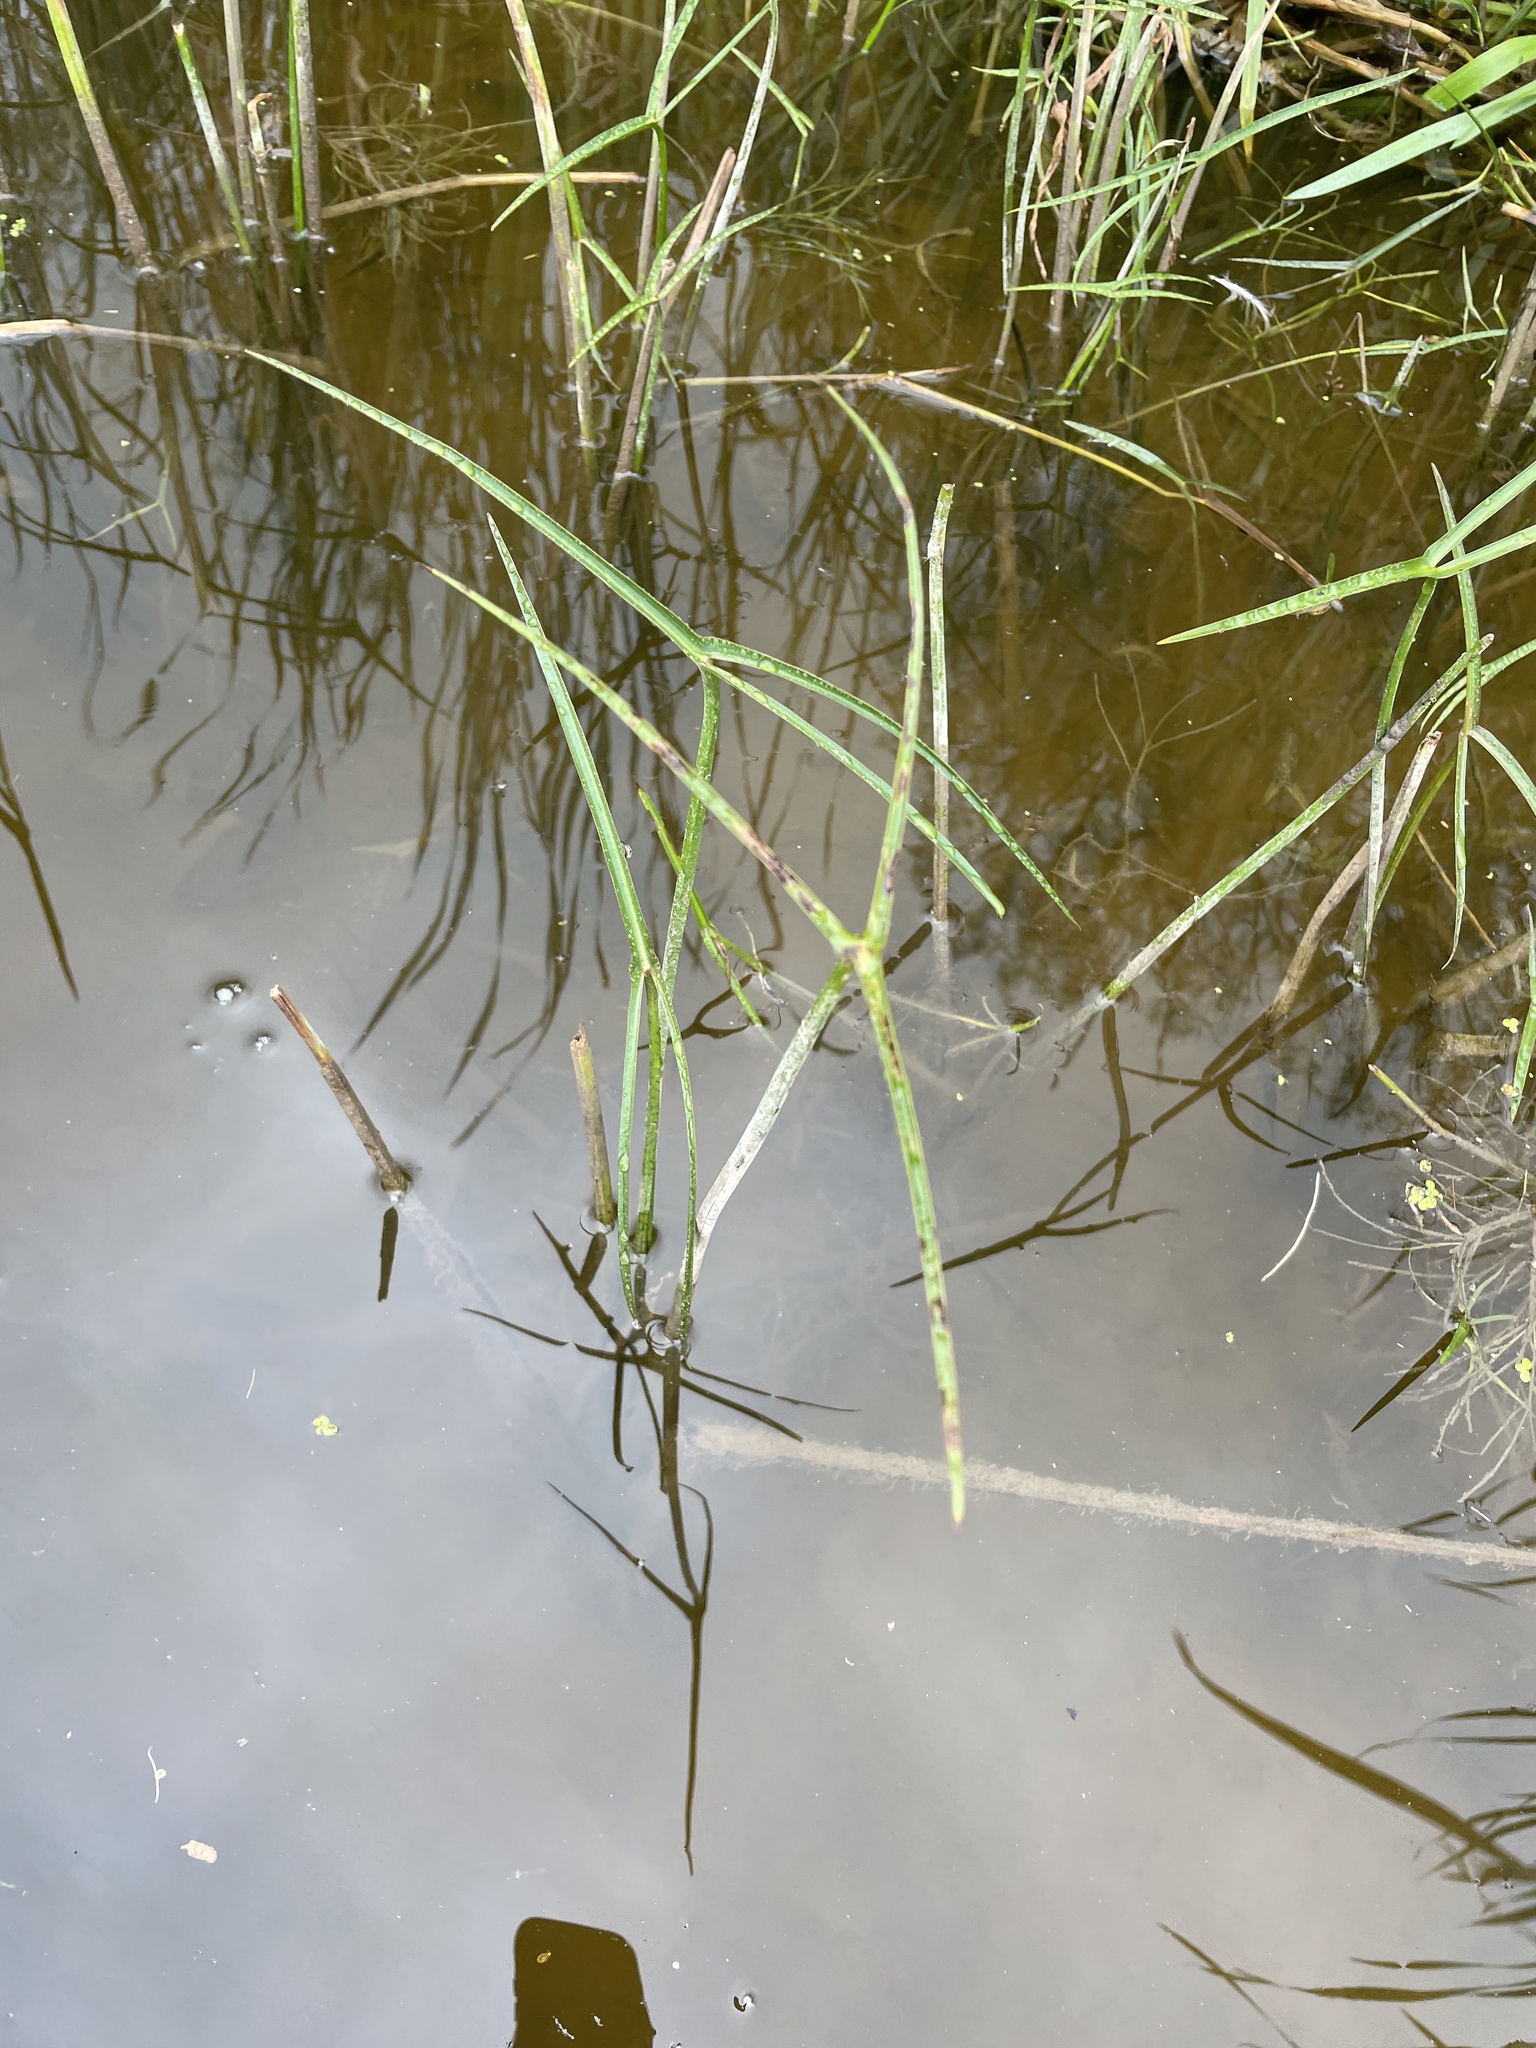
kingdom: Plantae
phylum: Tracheophyta
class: Liliopsida
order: Alismatales
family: Alismataceae
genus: Sagittaria
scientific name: Sagittaria latifolia
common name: Duck-potato
